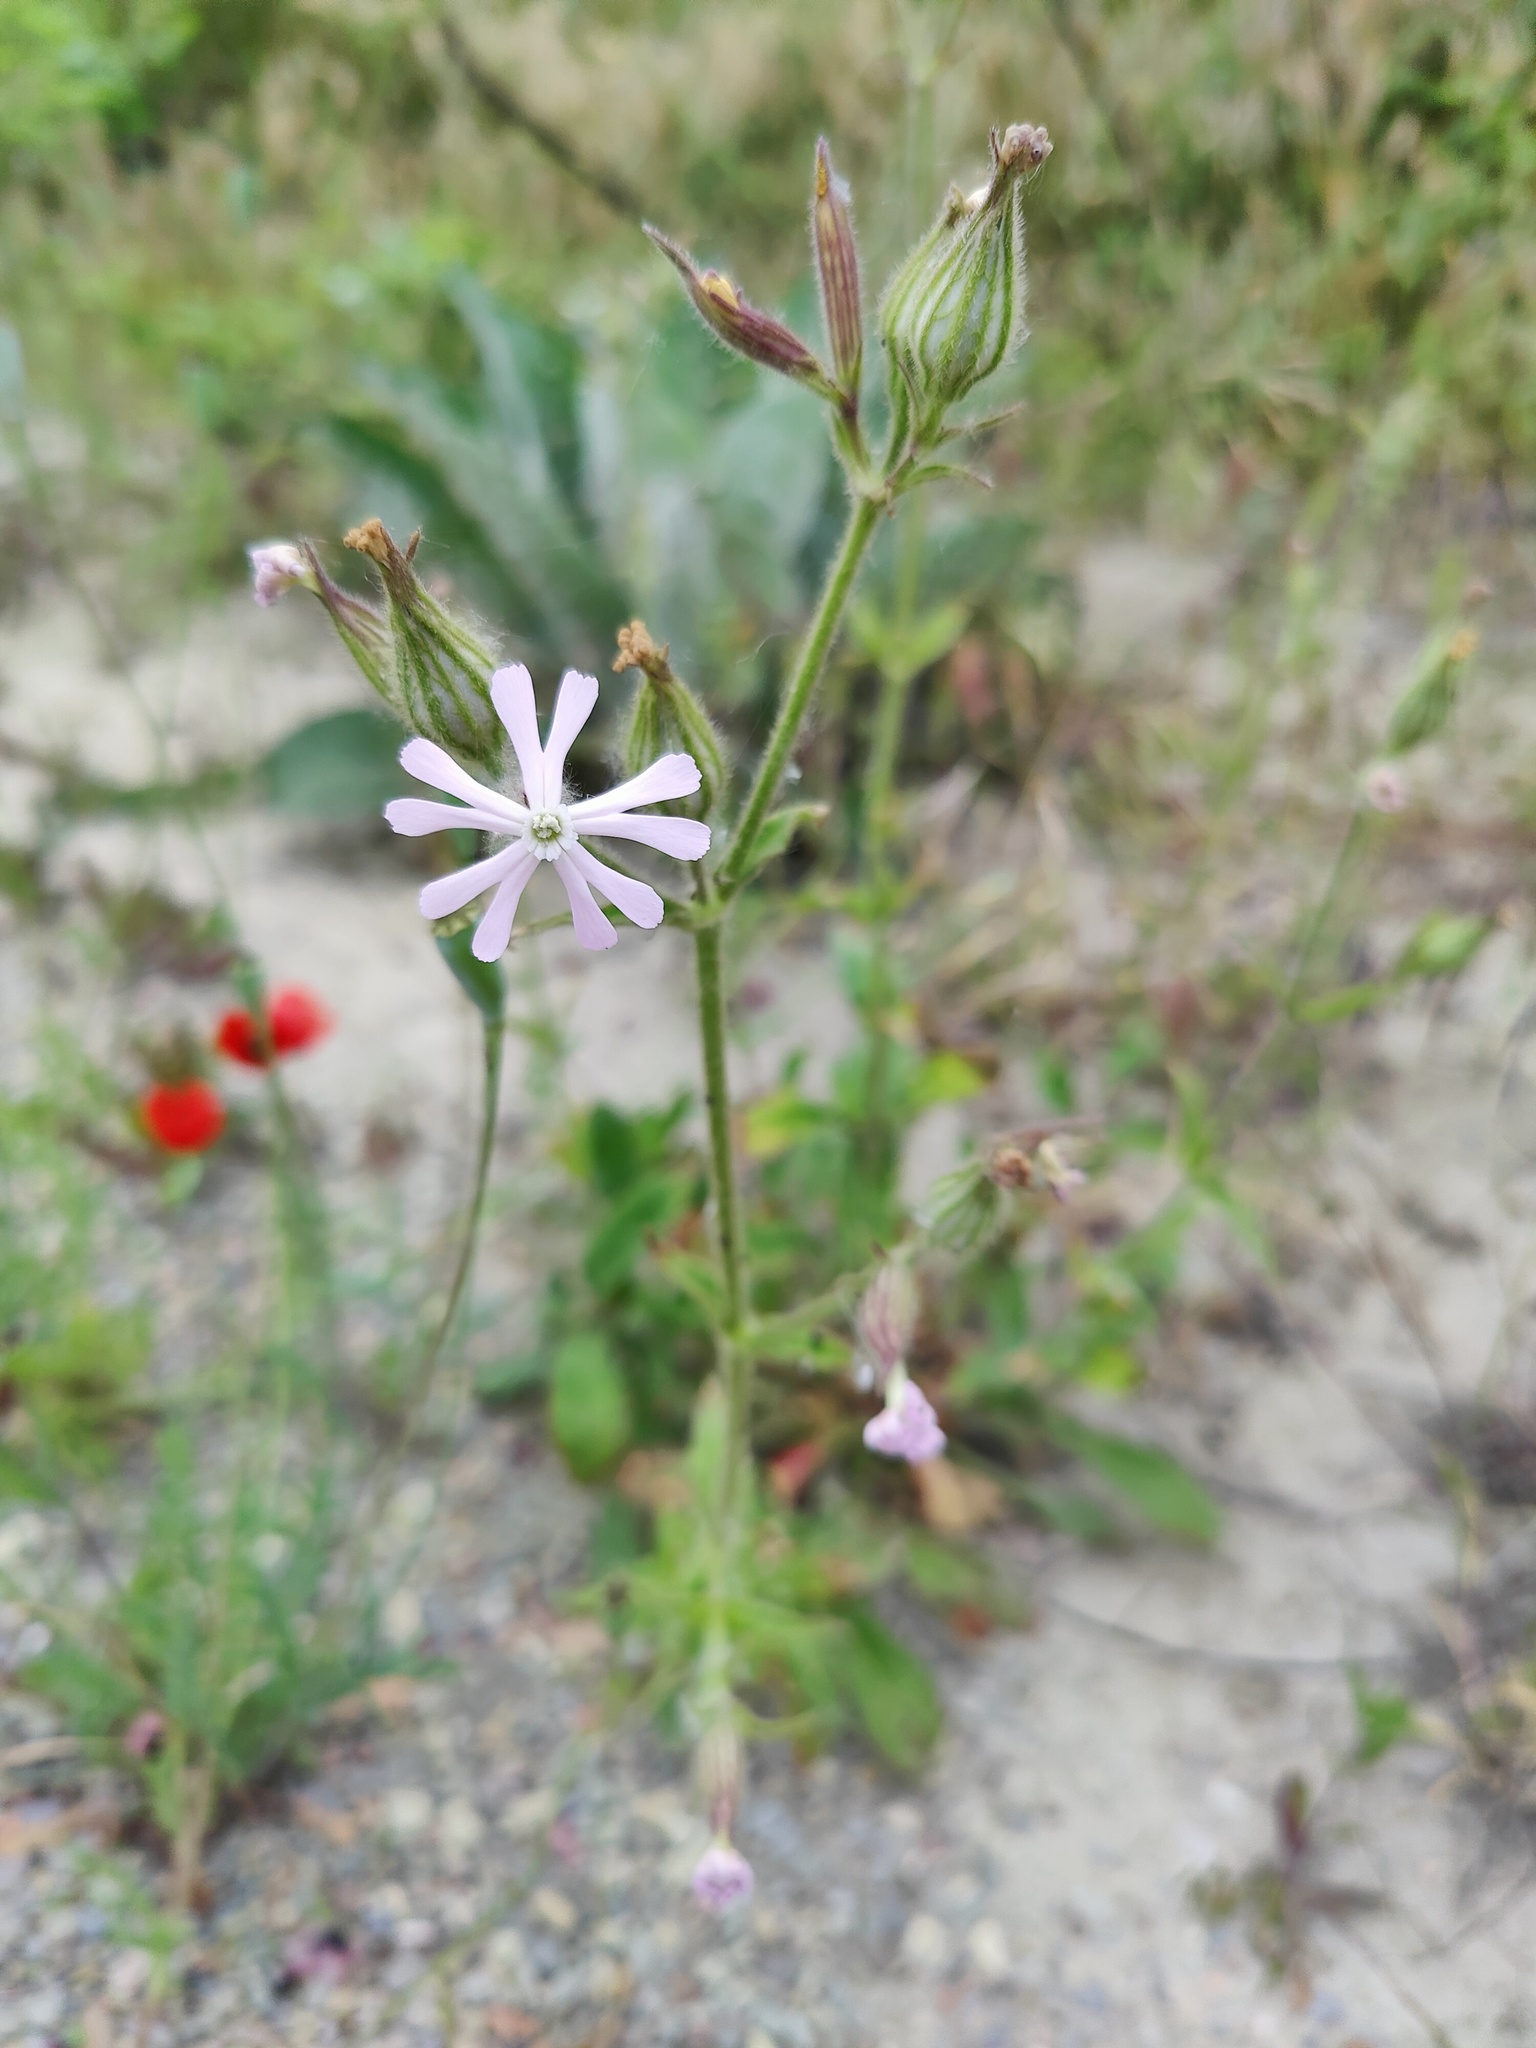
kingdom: Plantae
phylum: Tracheophyta
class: Magnoliopsida
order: Caryophyllales
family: Caryophyllaceae
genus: Silene
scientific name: Silene noctiflora
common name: Night-flowering catchfly
